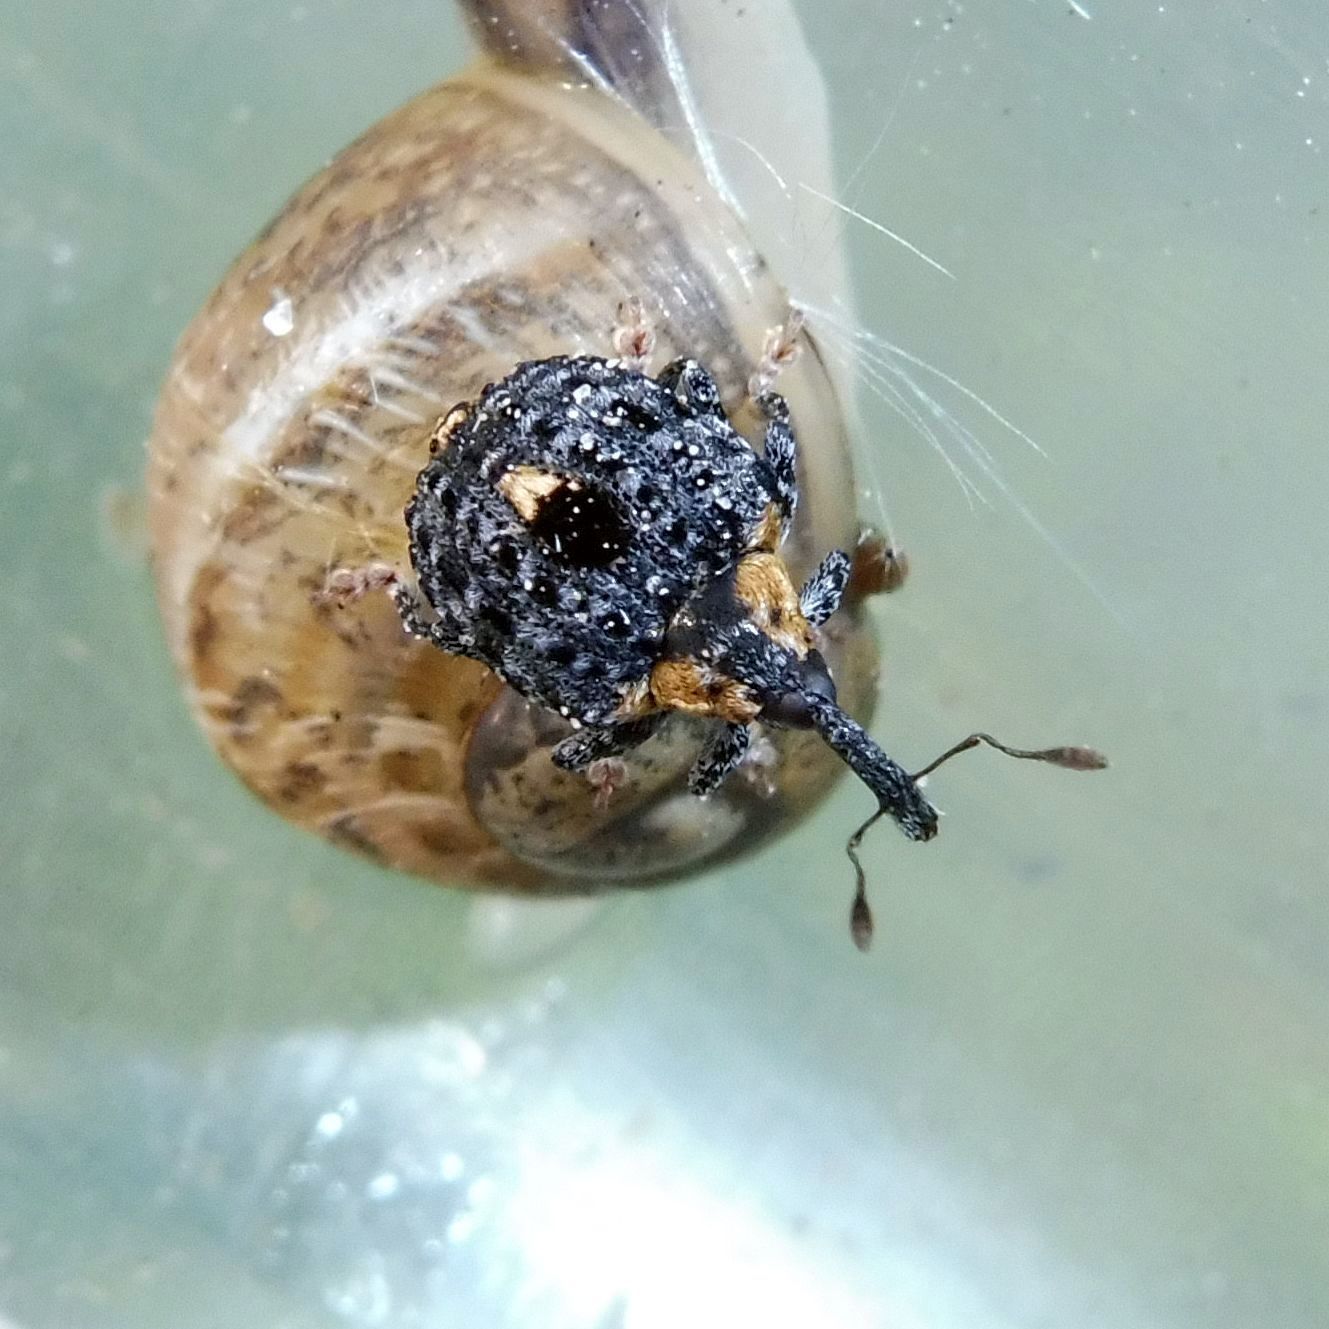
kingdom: Animalia
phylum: Arthropoda
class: Insecta
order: Coleoptera
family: Curculionidae
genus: Cionus
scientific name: Cionus tuberculosus
